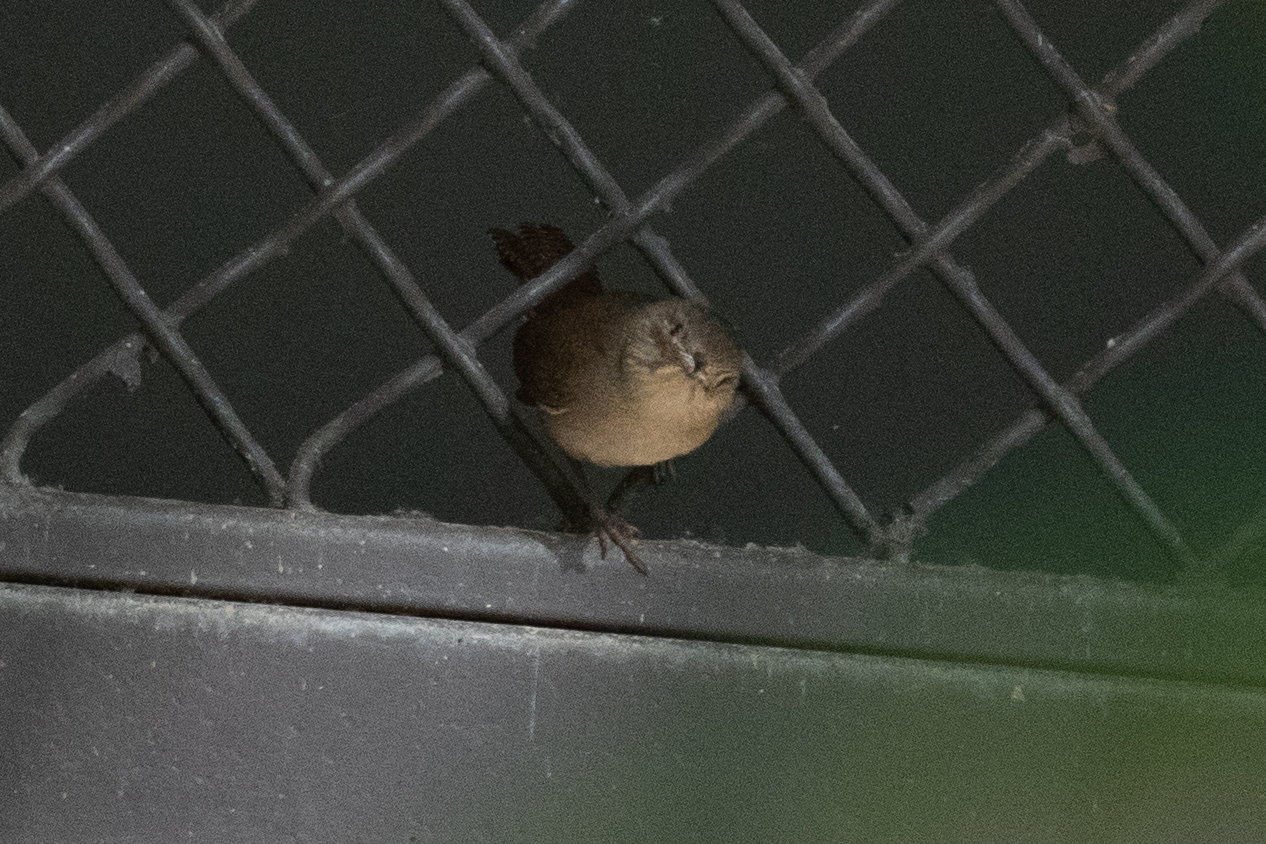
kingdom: Animalia
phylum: Chordata
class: Aves
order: Passeriformes
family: Troglodytidae
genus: Troglodytes
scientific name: Troglodytes aedon
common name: House wren
